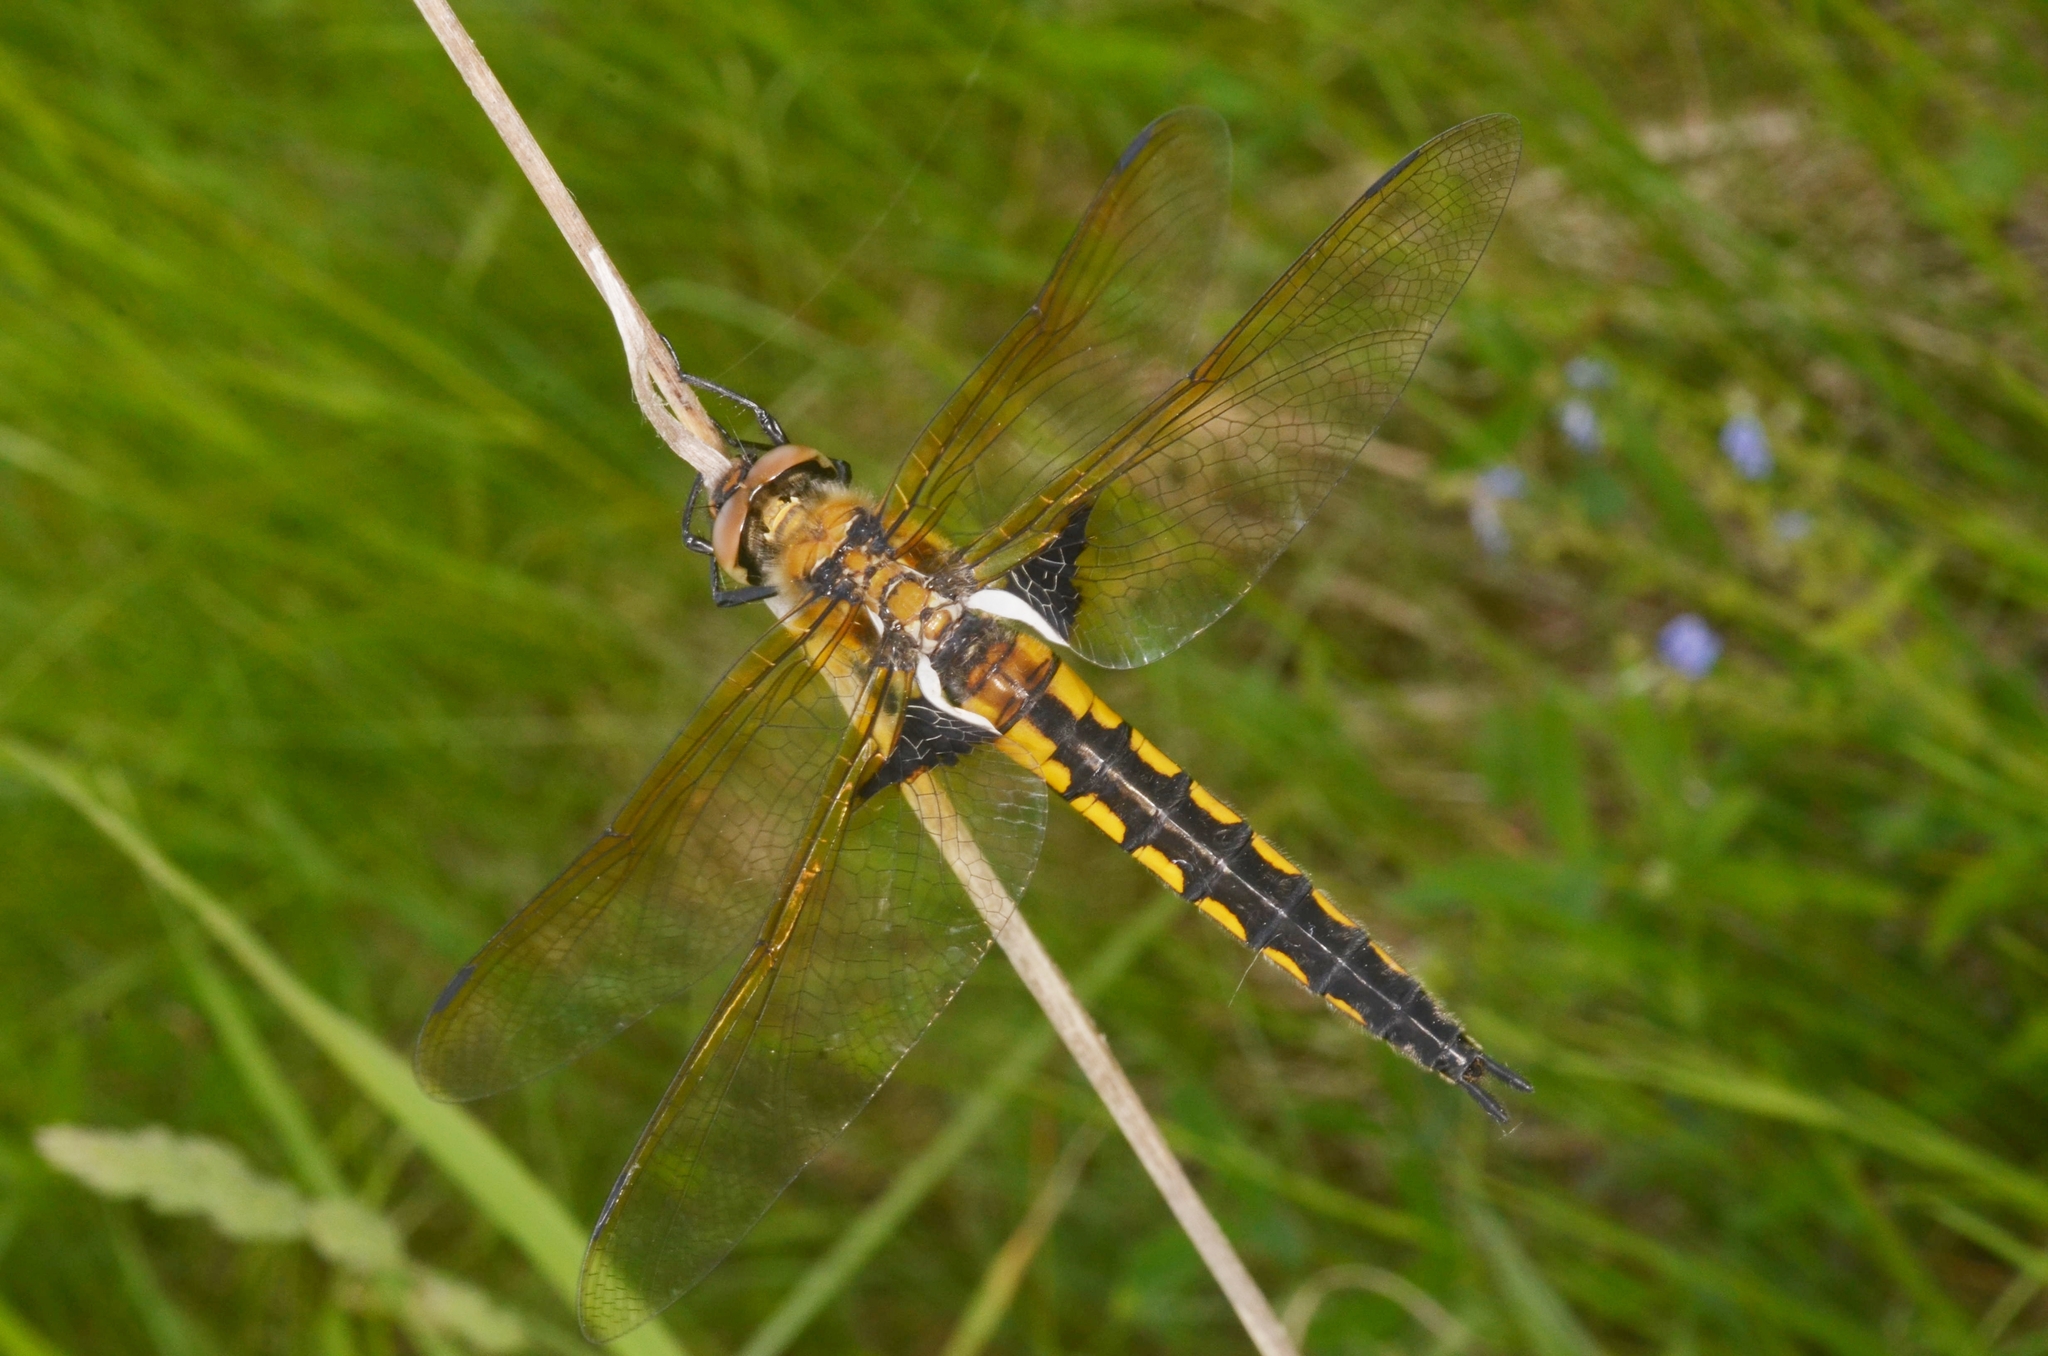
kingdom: Animalia
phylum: Arthropoda
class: Insecta
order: Odonata
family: Corduliidae
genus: Epitheca
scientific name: Epitheca bimaculata
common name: Eurasian baskettail
